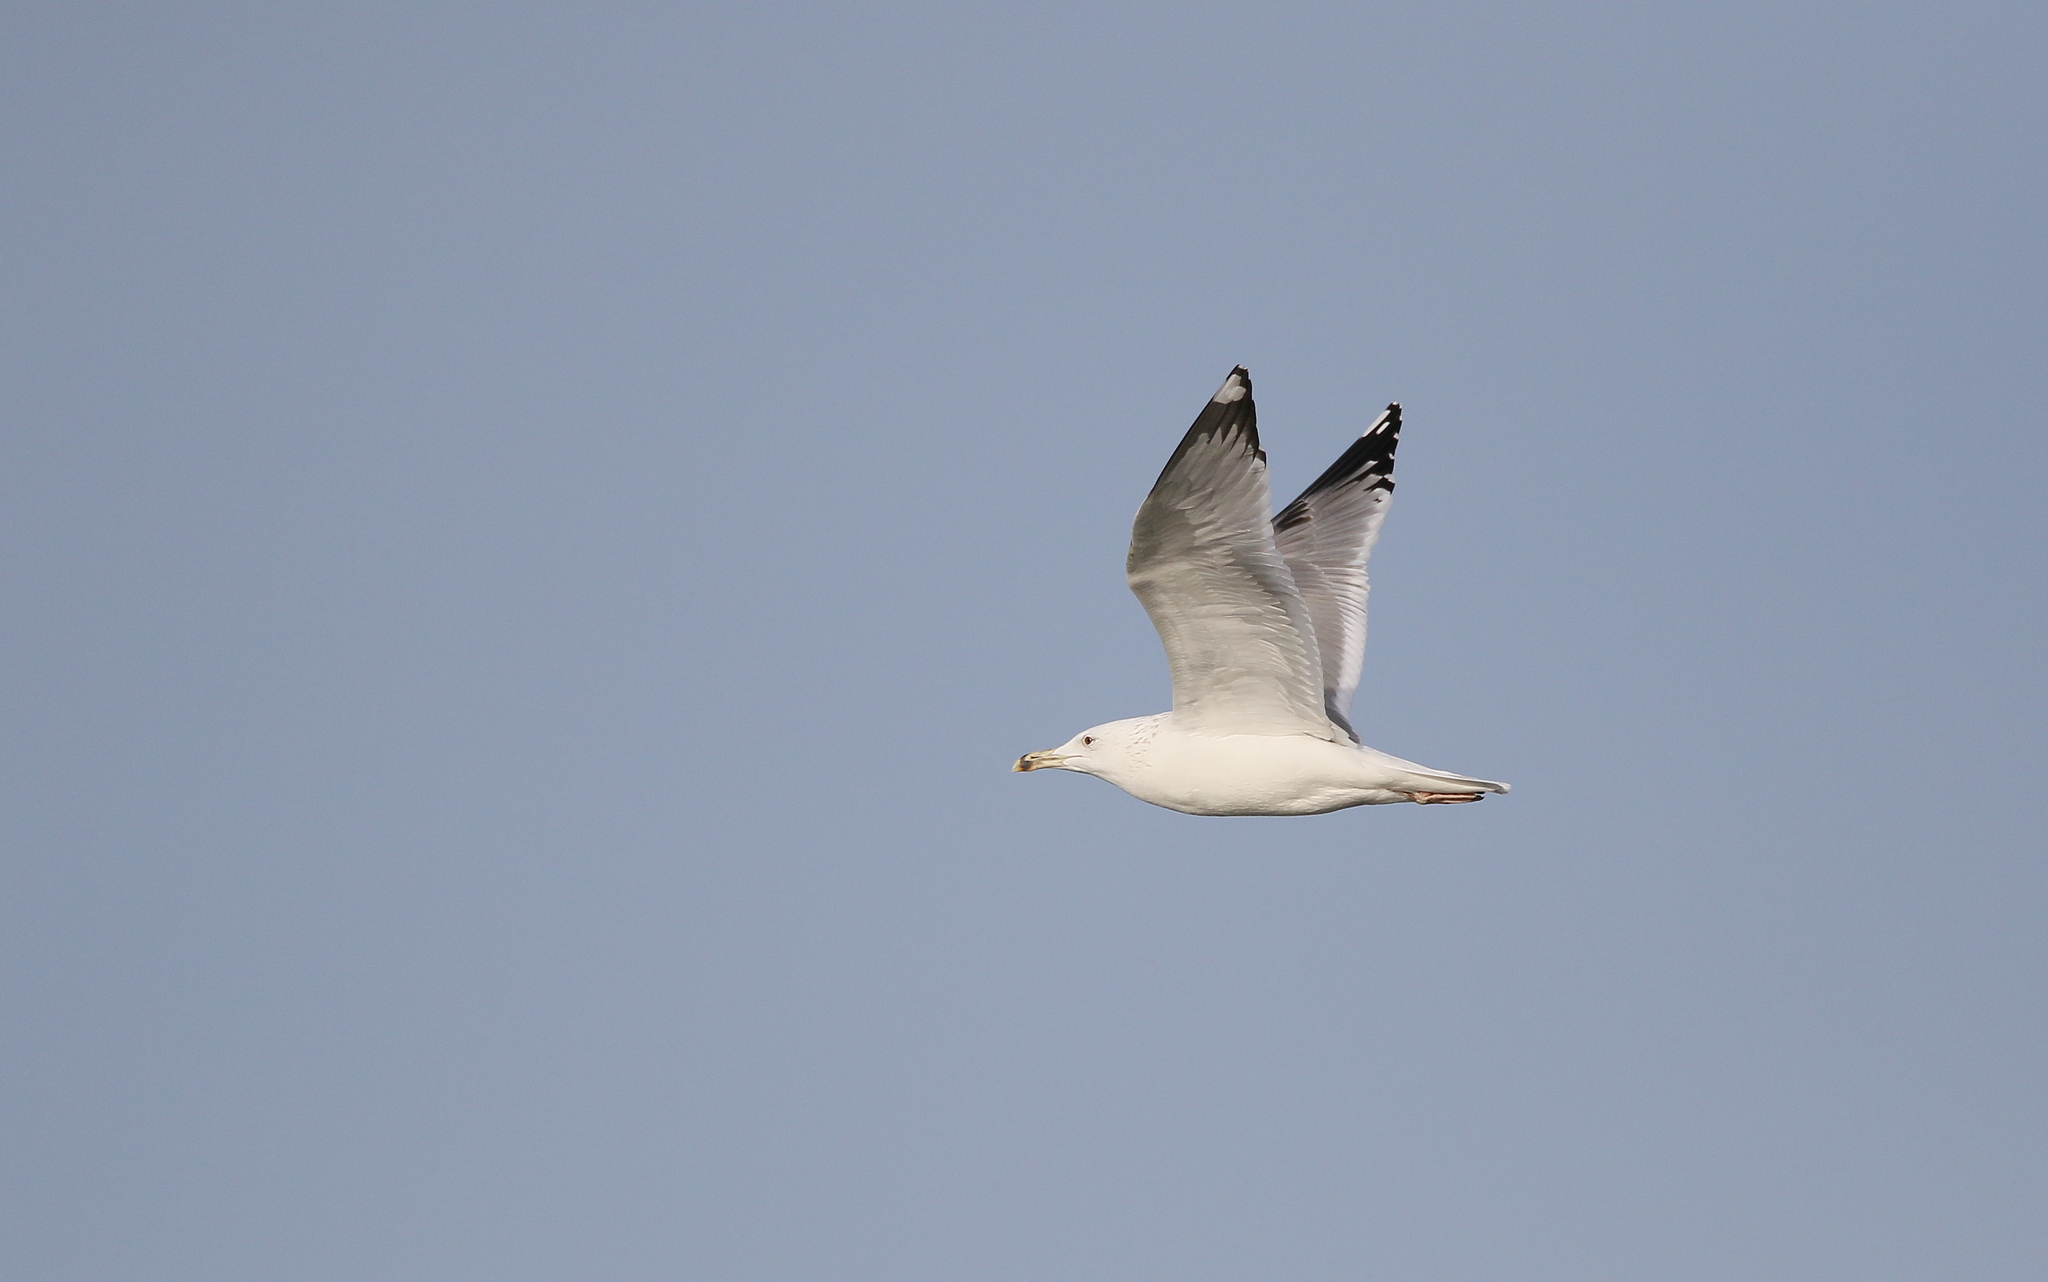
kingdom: Animalia
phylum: Chordata
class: Aves
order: Charadriiformes
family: Laridae
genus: Larus
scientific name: Larus cachinnans
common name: Caspian gull
